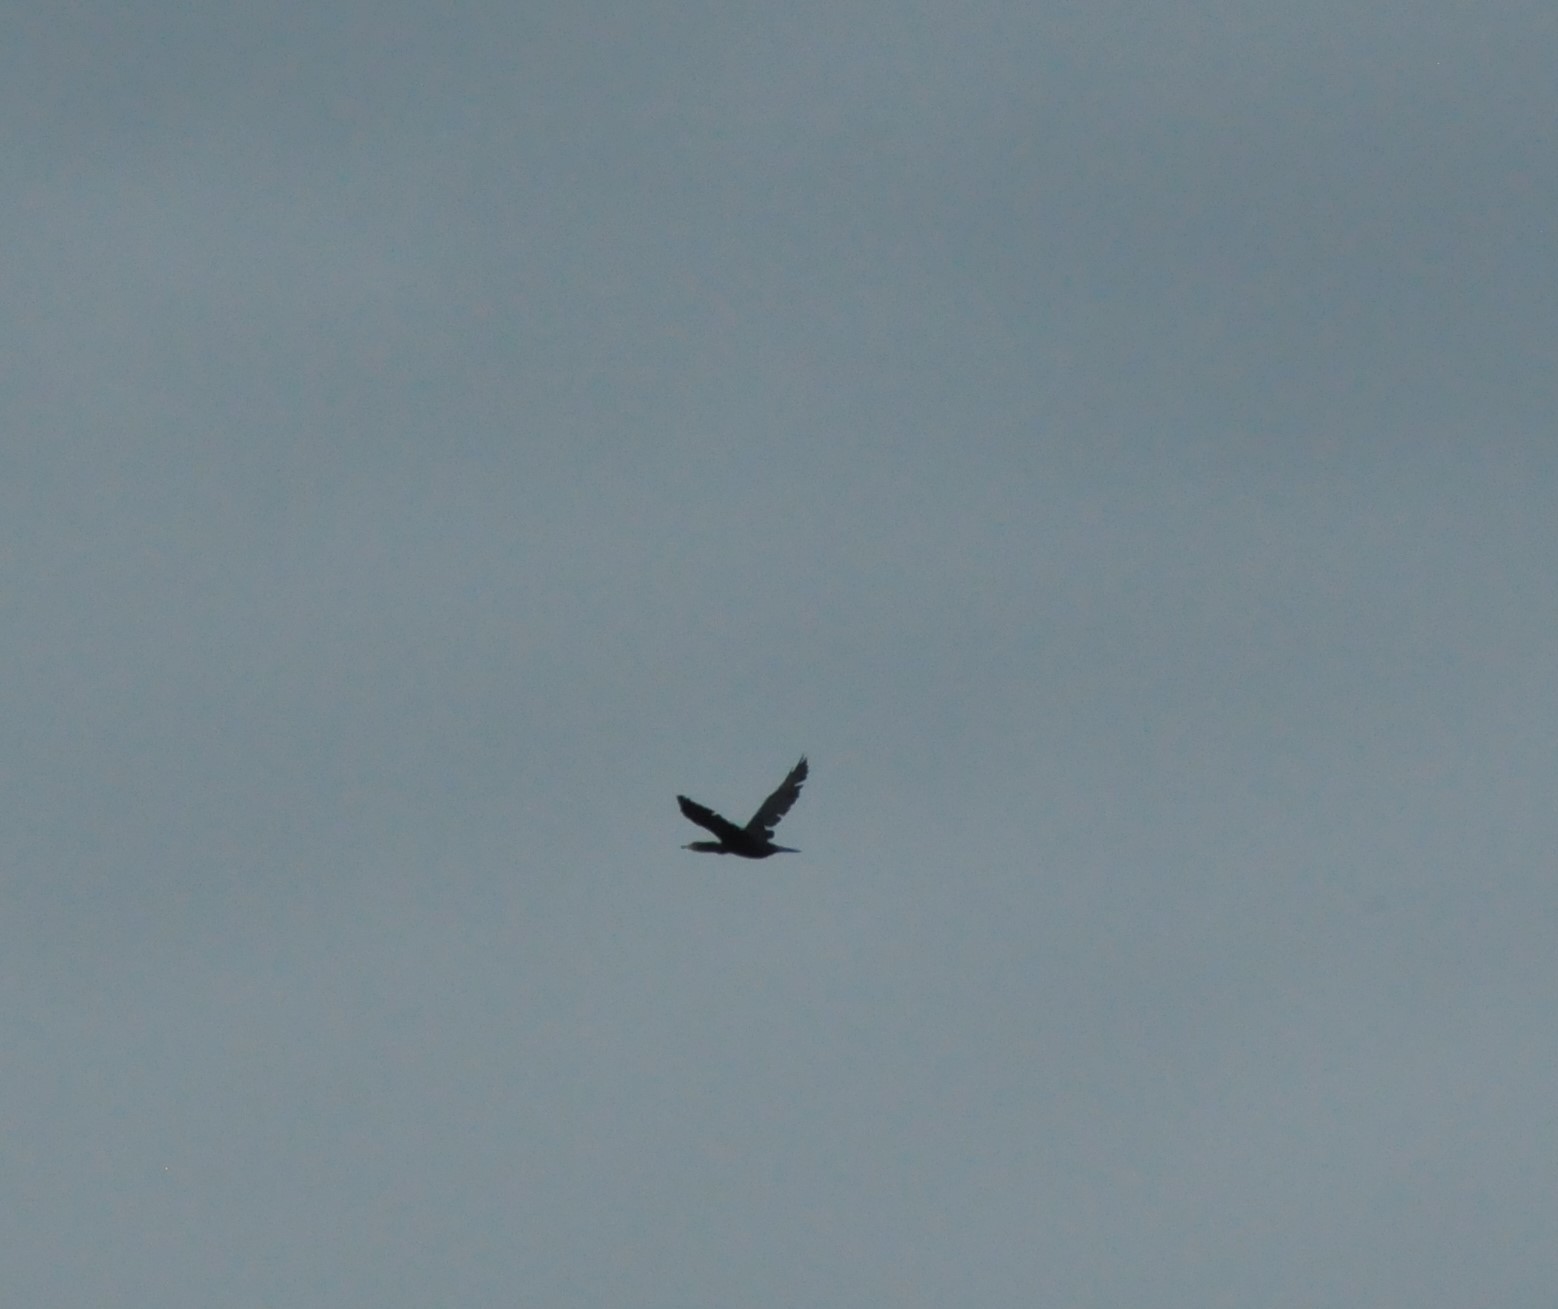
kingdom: Animalia
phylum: Chordata
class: Aves
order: Suliformes
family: Phalacrocoracidae
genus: Phalacrocorax
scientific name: Phalacrocorax carbo
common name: Great cormorant
